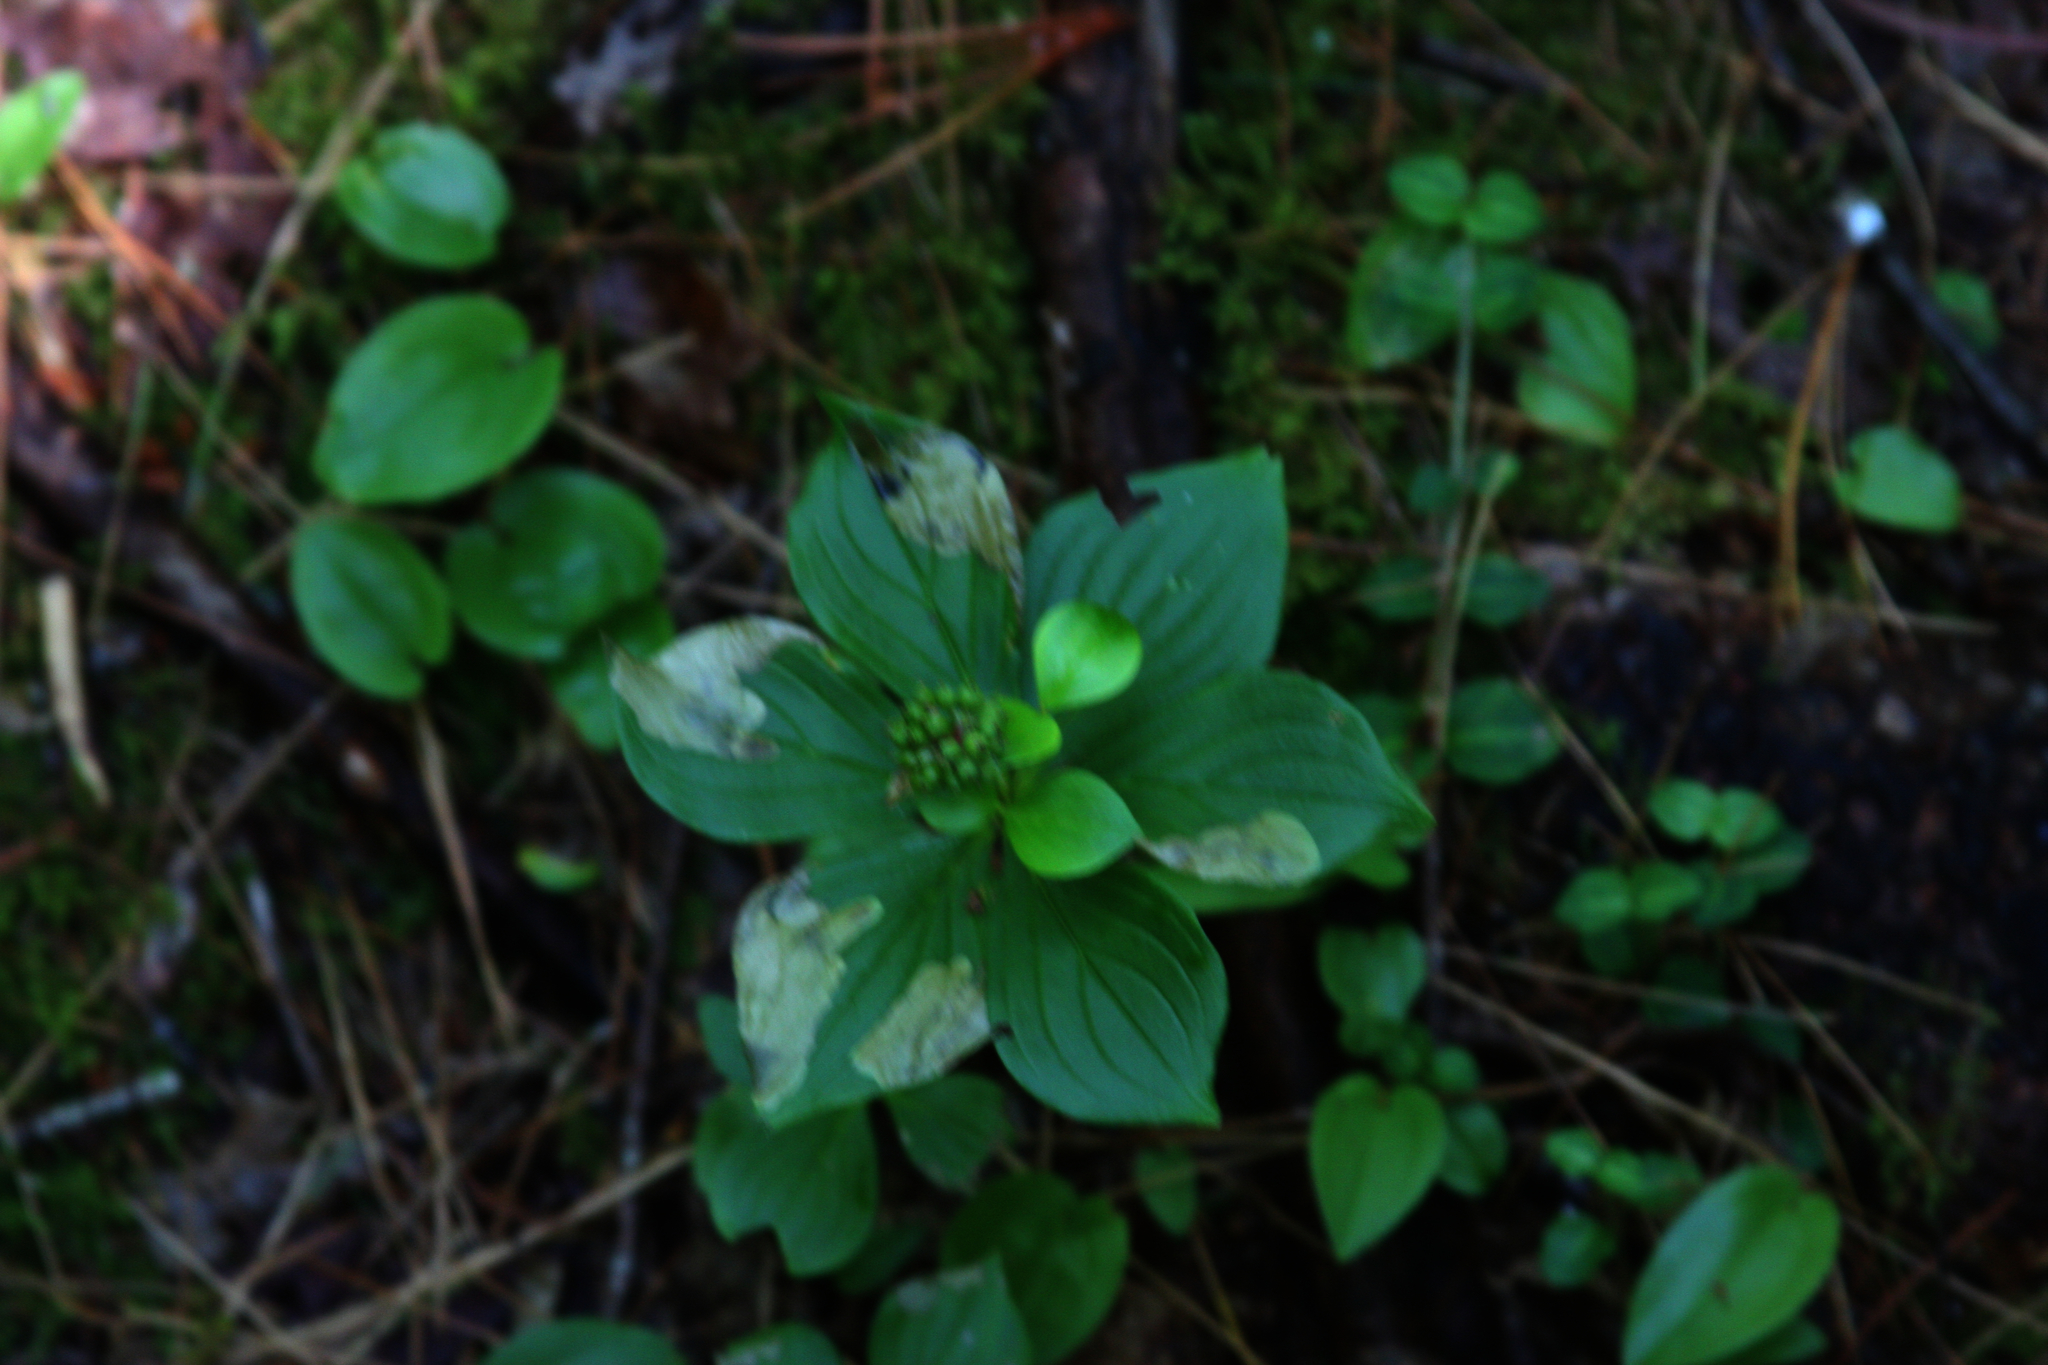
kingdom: Plantae
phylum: Tracheophyta
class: Magnoliopsida
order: Cornales
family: Cornaceae
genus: Cornus
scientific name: Cornus canadensis
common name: Creeping dogwood
